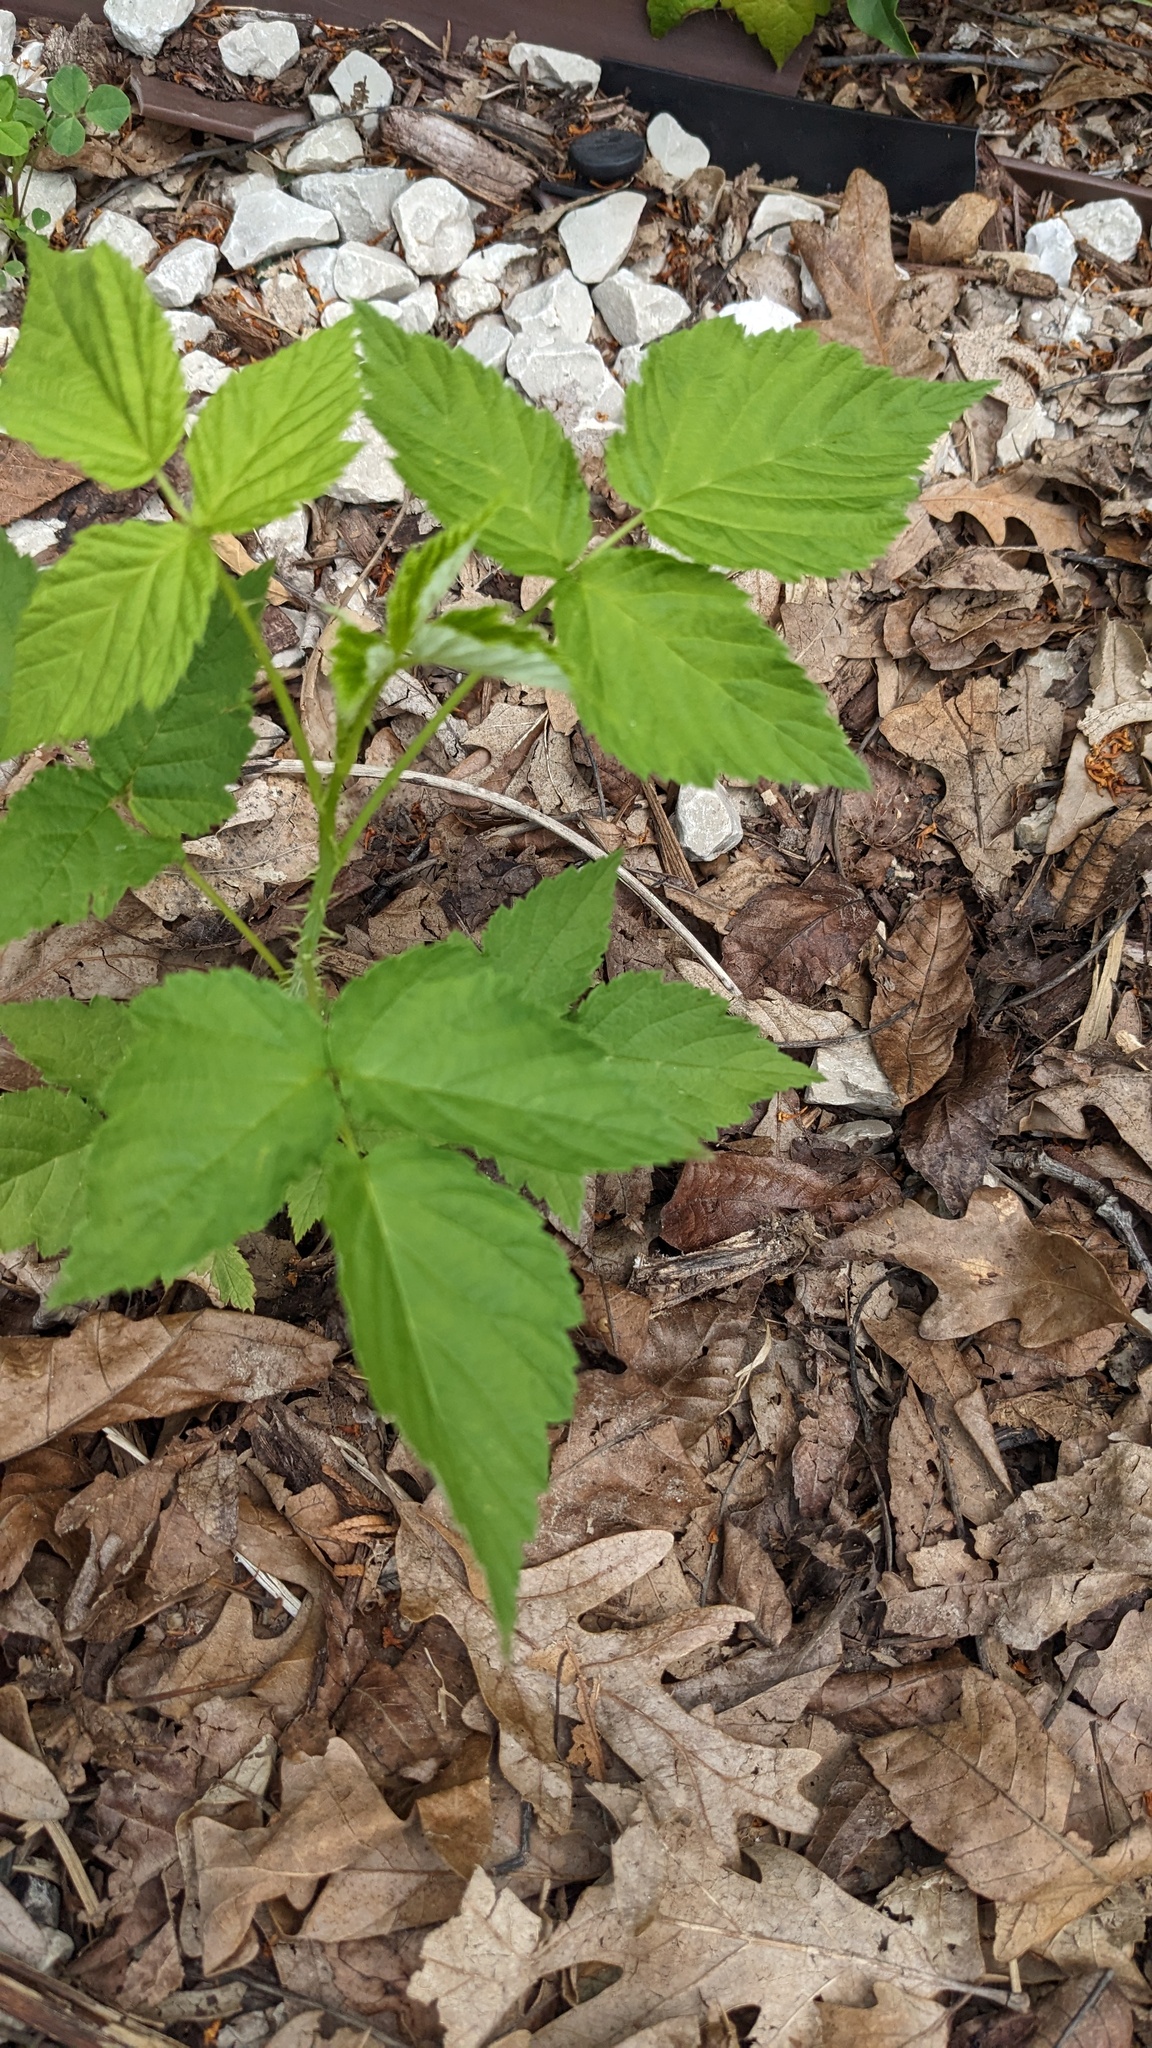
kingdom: Plantae
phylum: Tracheophyta
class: Magnoliopsida
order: Rosales
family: Rosaceae
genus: Rubus
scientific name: Rubus occidentalis
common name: Black raspberry
